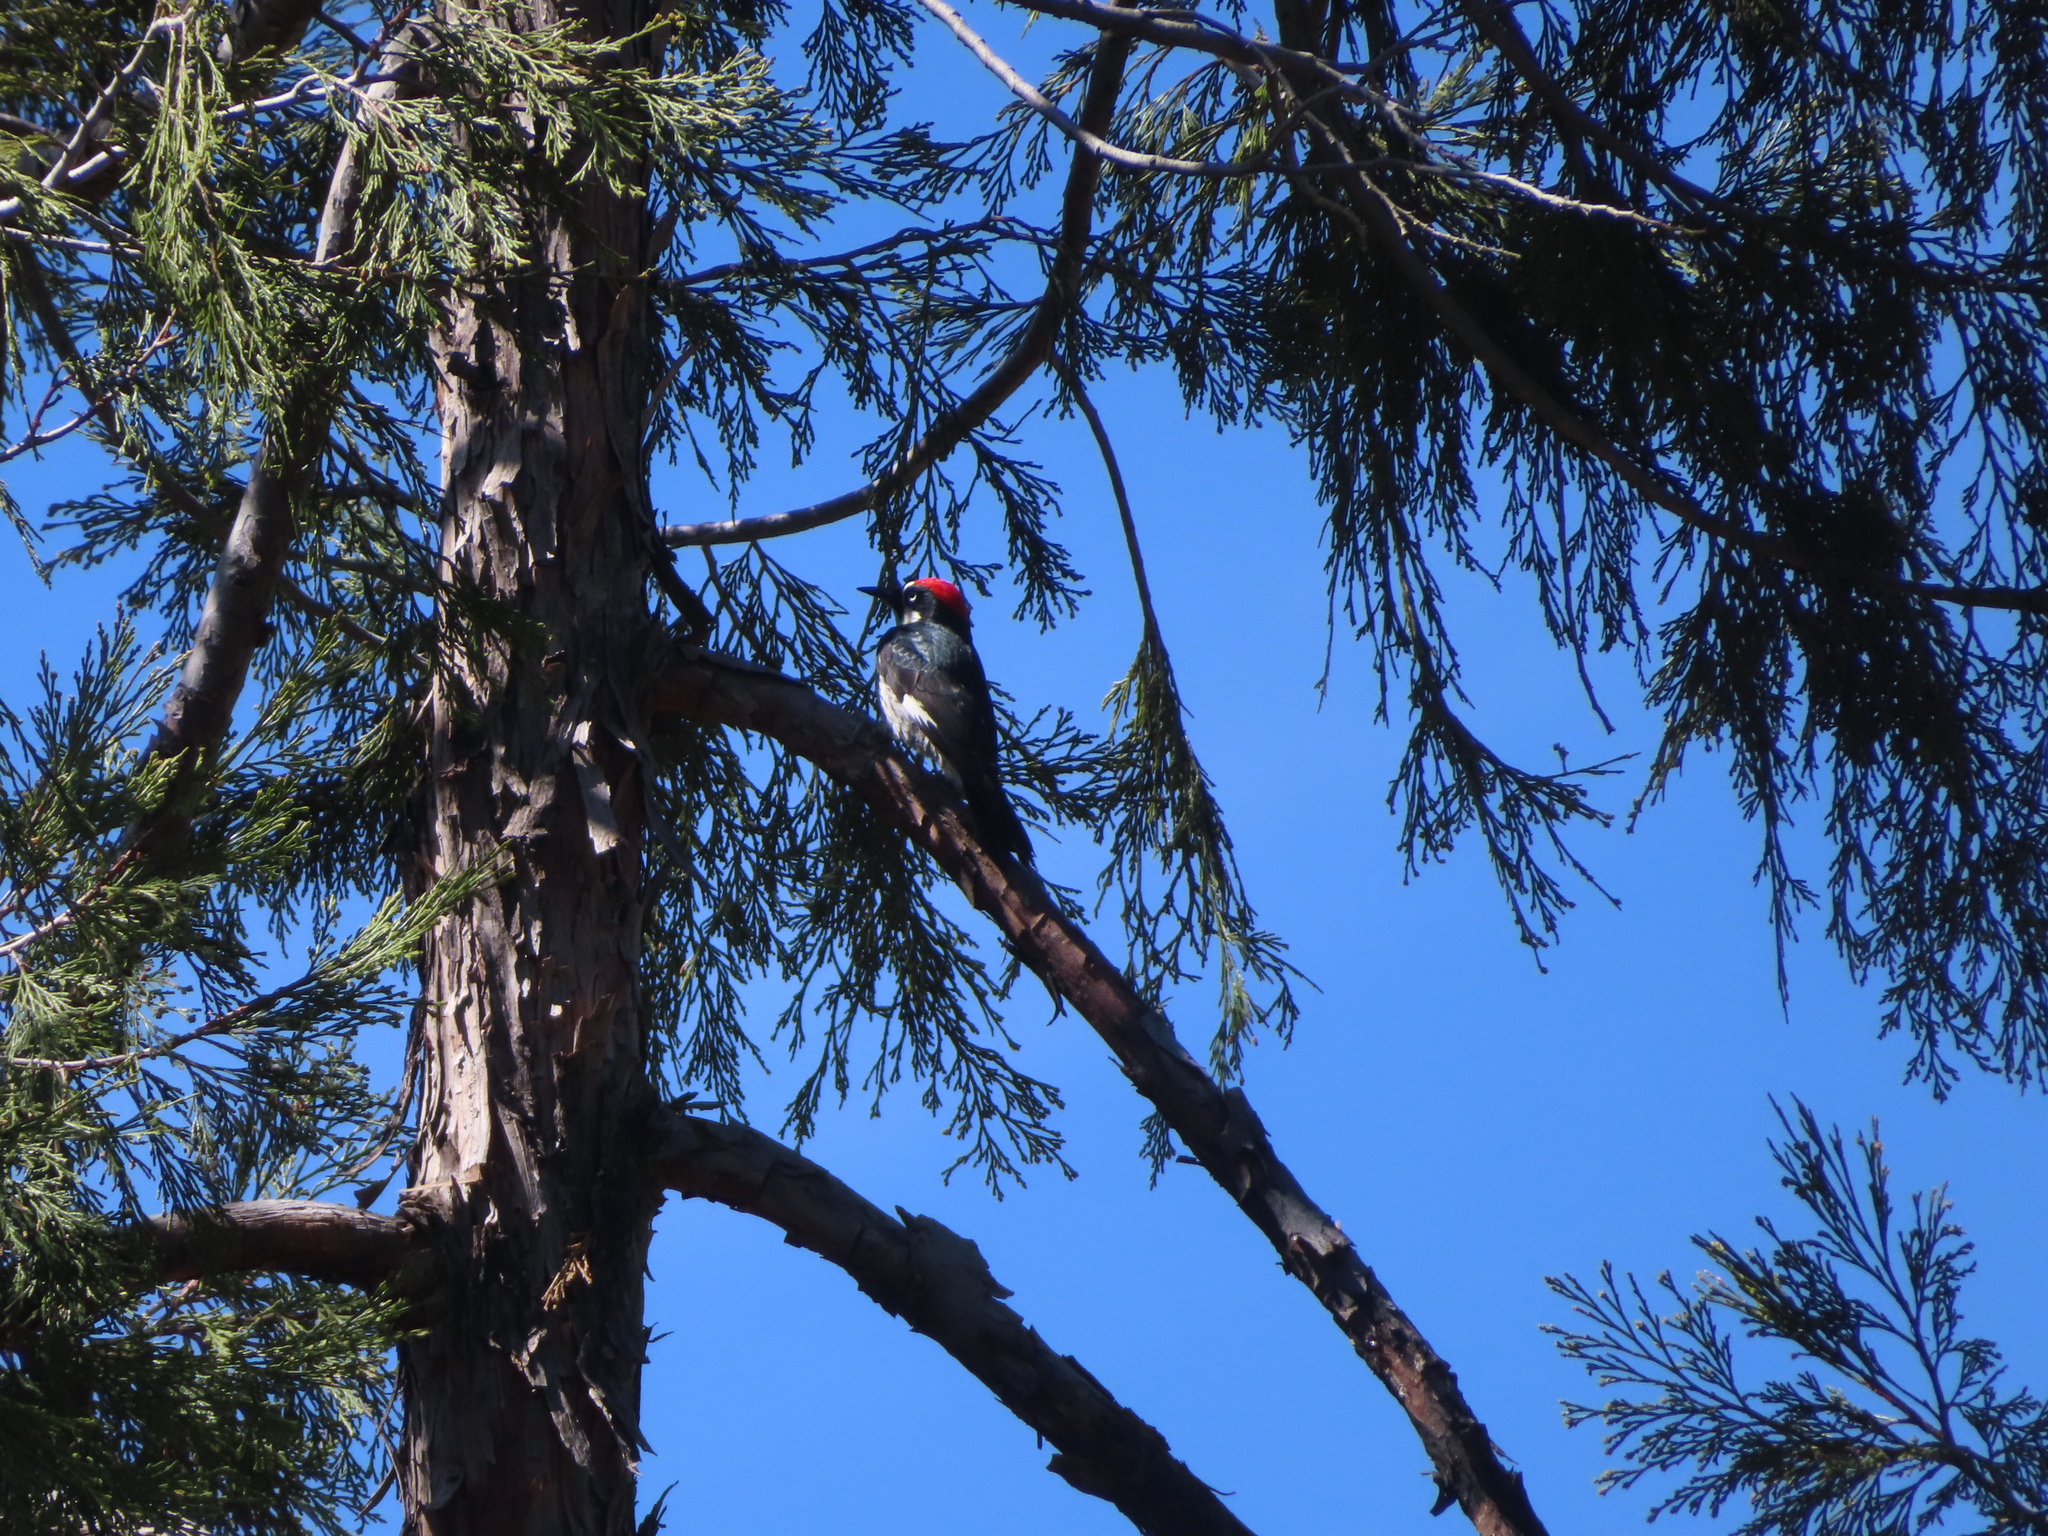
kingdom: Animalia
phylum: Chordata
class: Aves
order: Piciformes
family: Picidae
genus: Melanerpes
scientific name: Melanerpes formicivorus
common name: Acorn woodpecker
